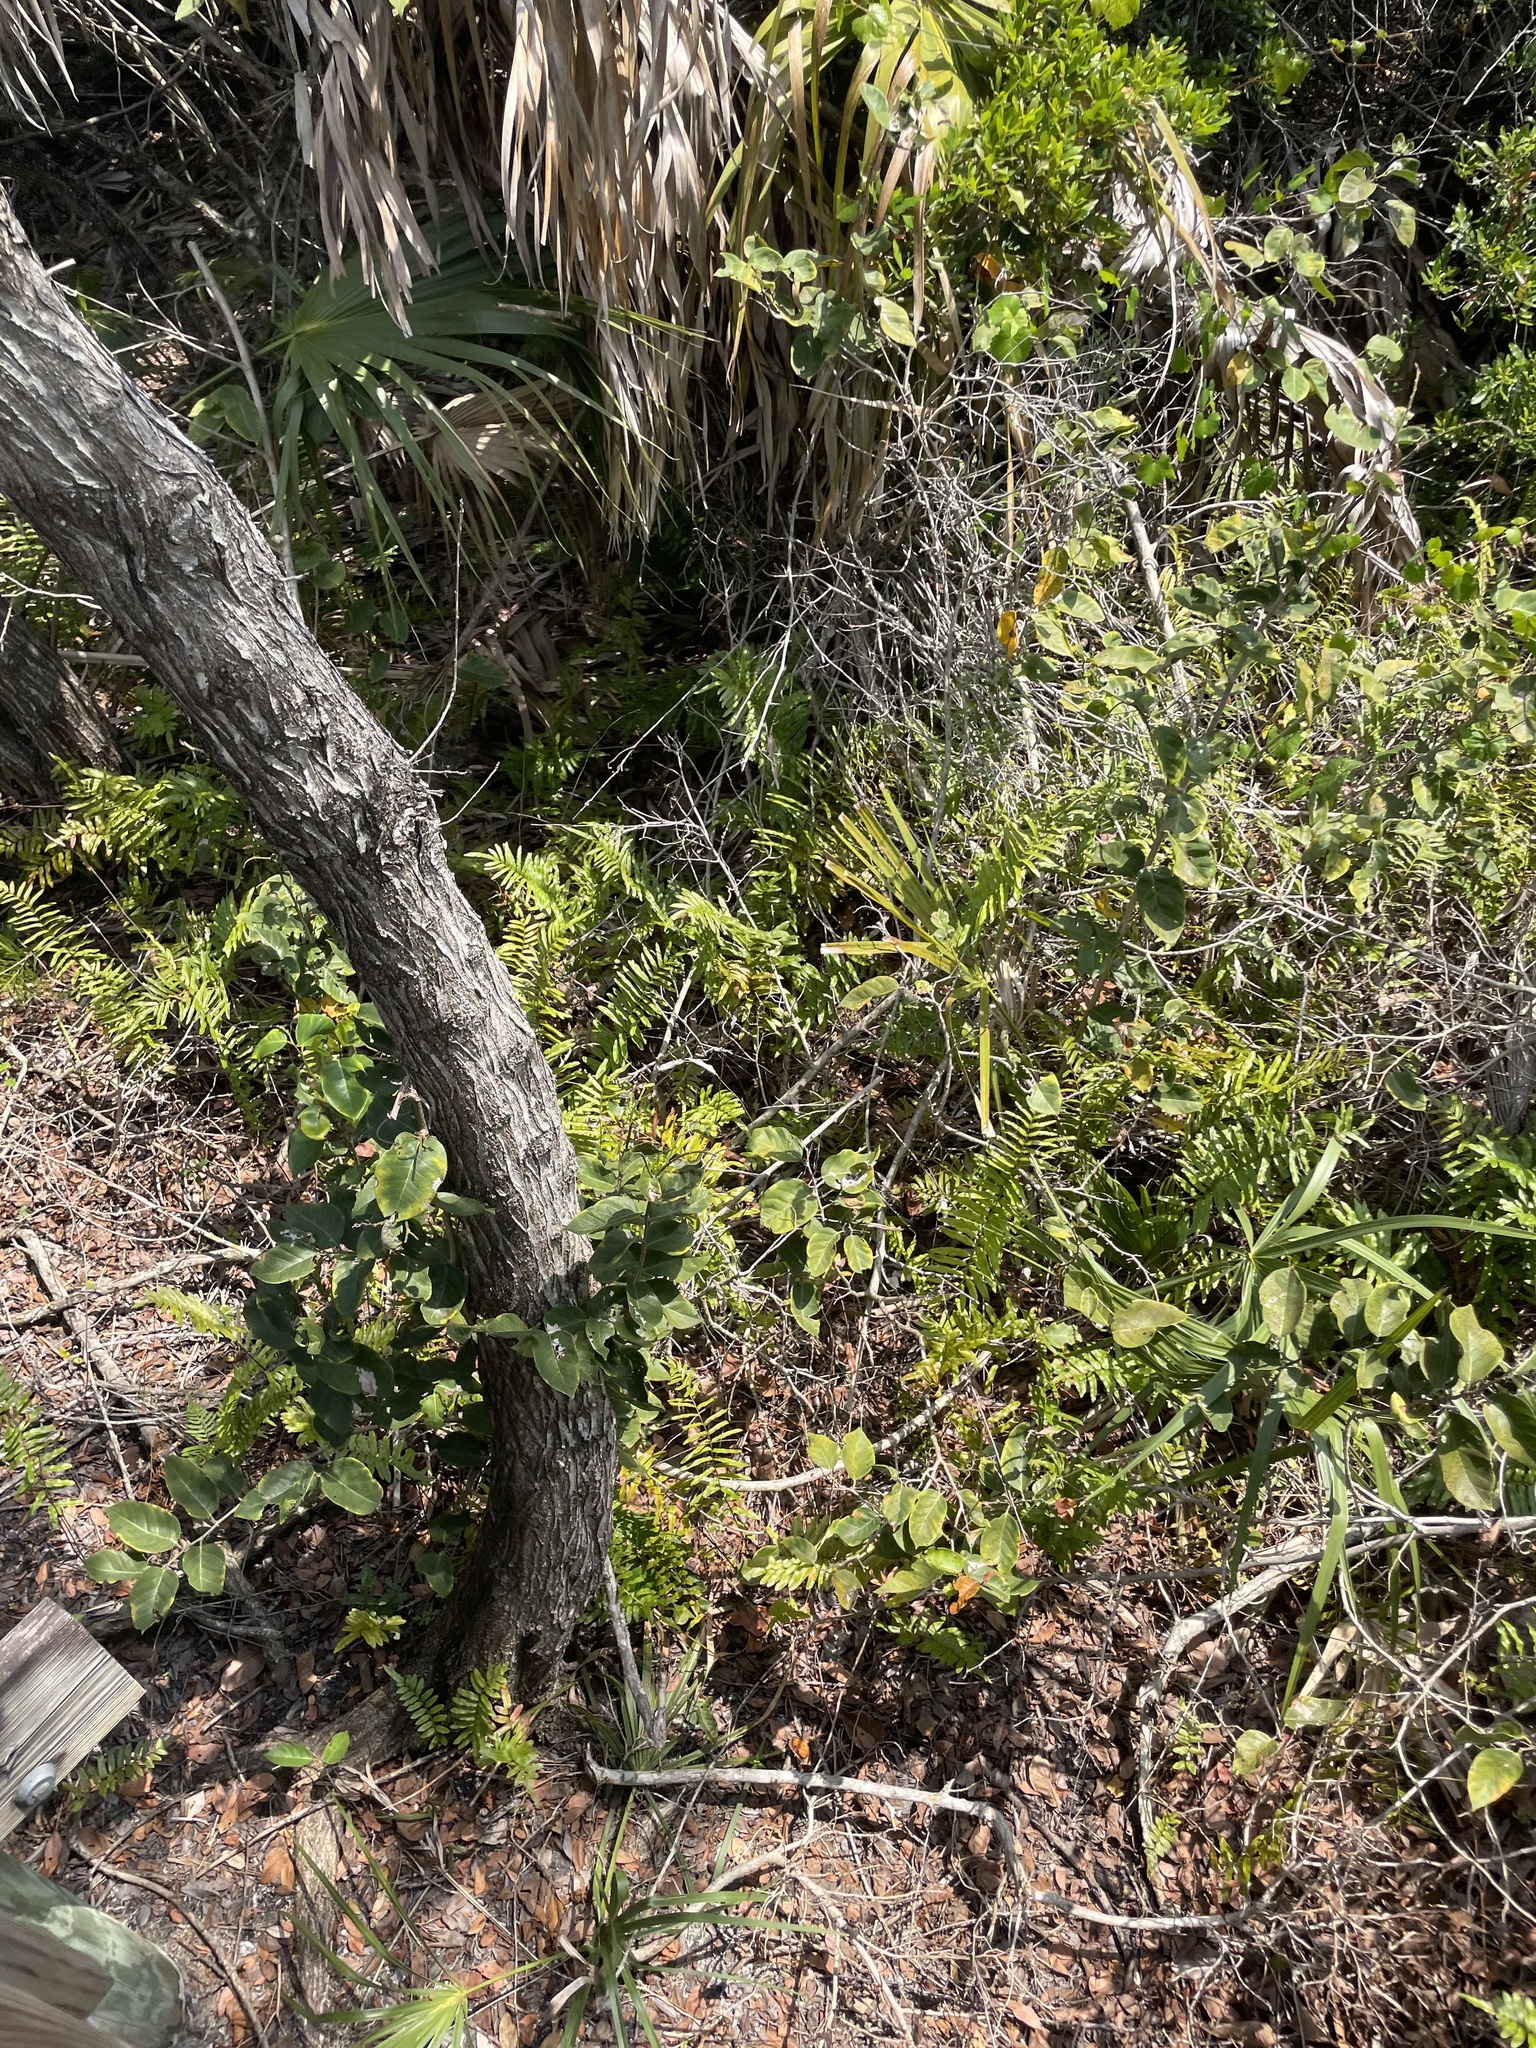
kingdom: Plantae
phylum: Tracheophyta
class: Polypodiopsida
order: Polypodiales
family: Blechnaceae
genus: Telmatoblechnum
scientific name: Telmatoblechnum serrulatum
